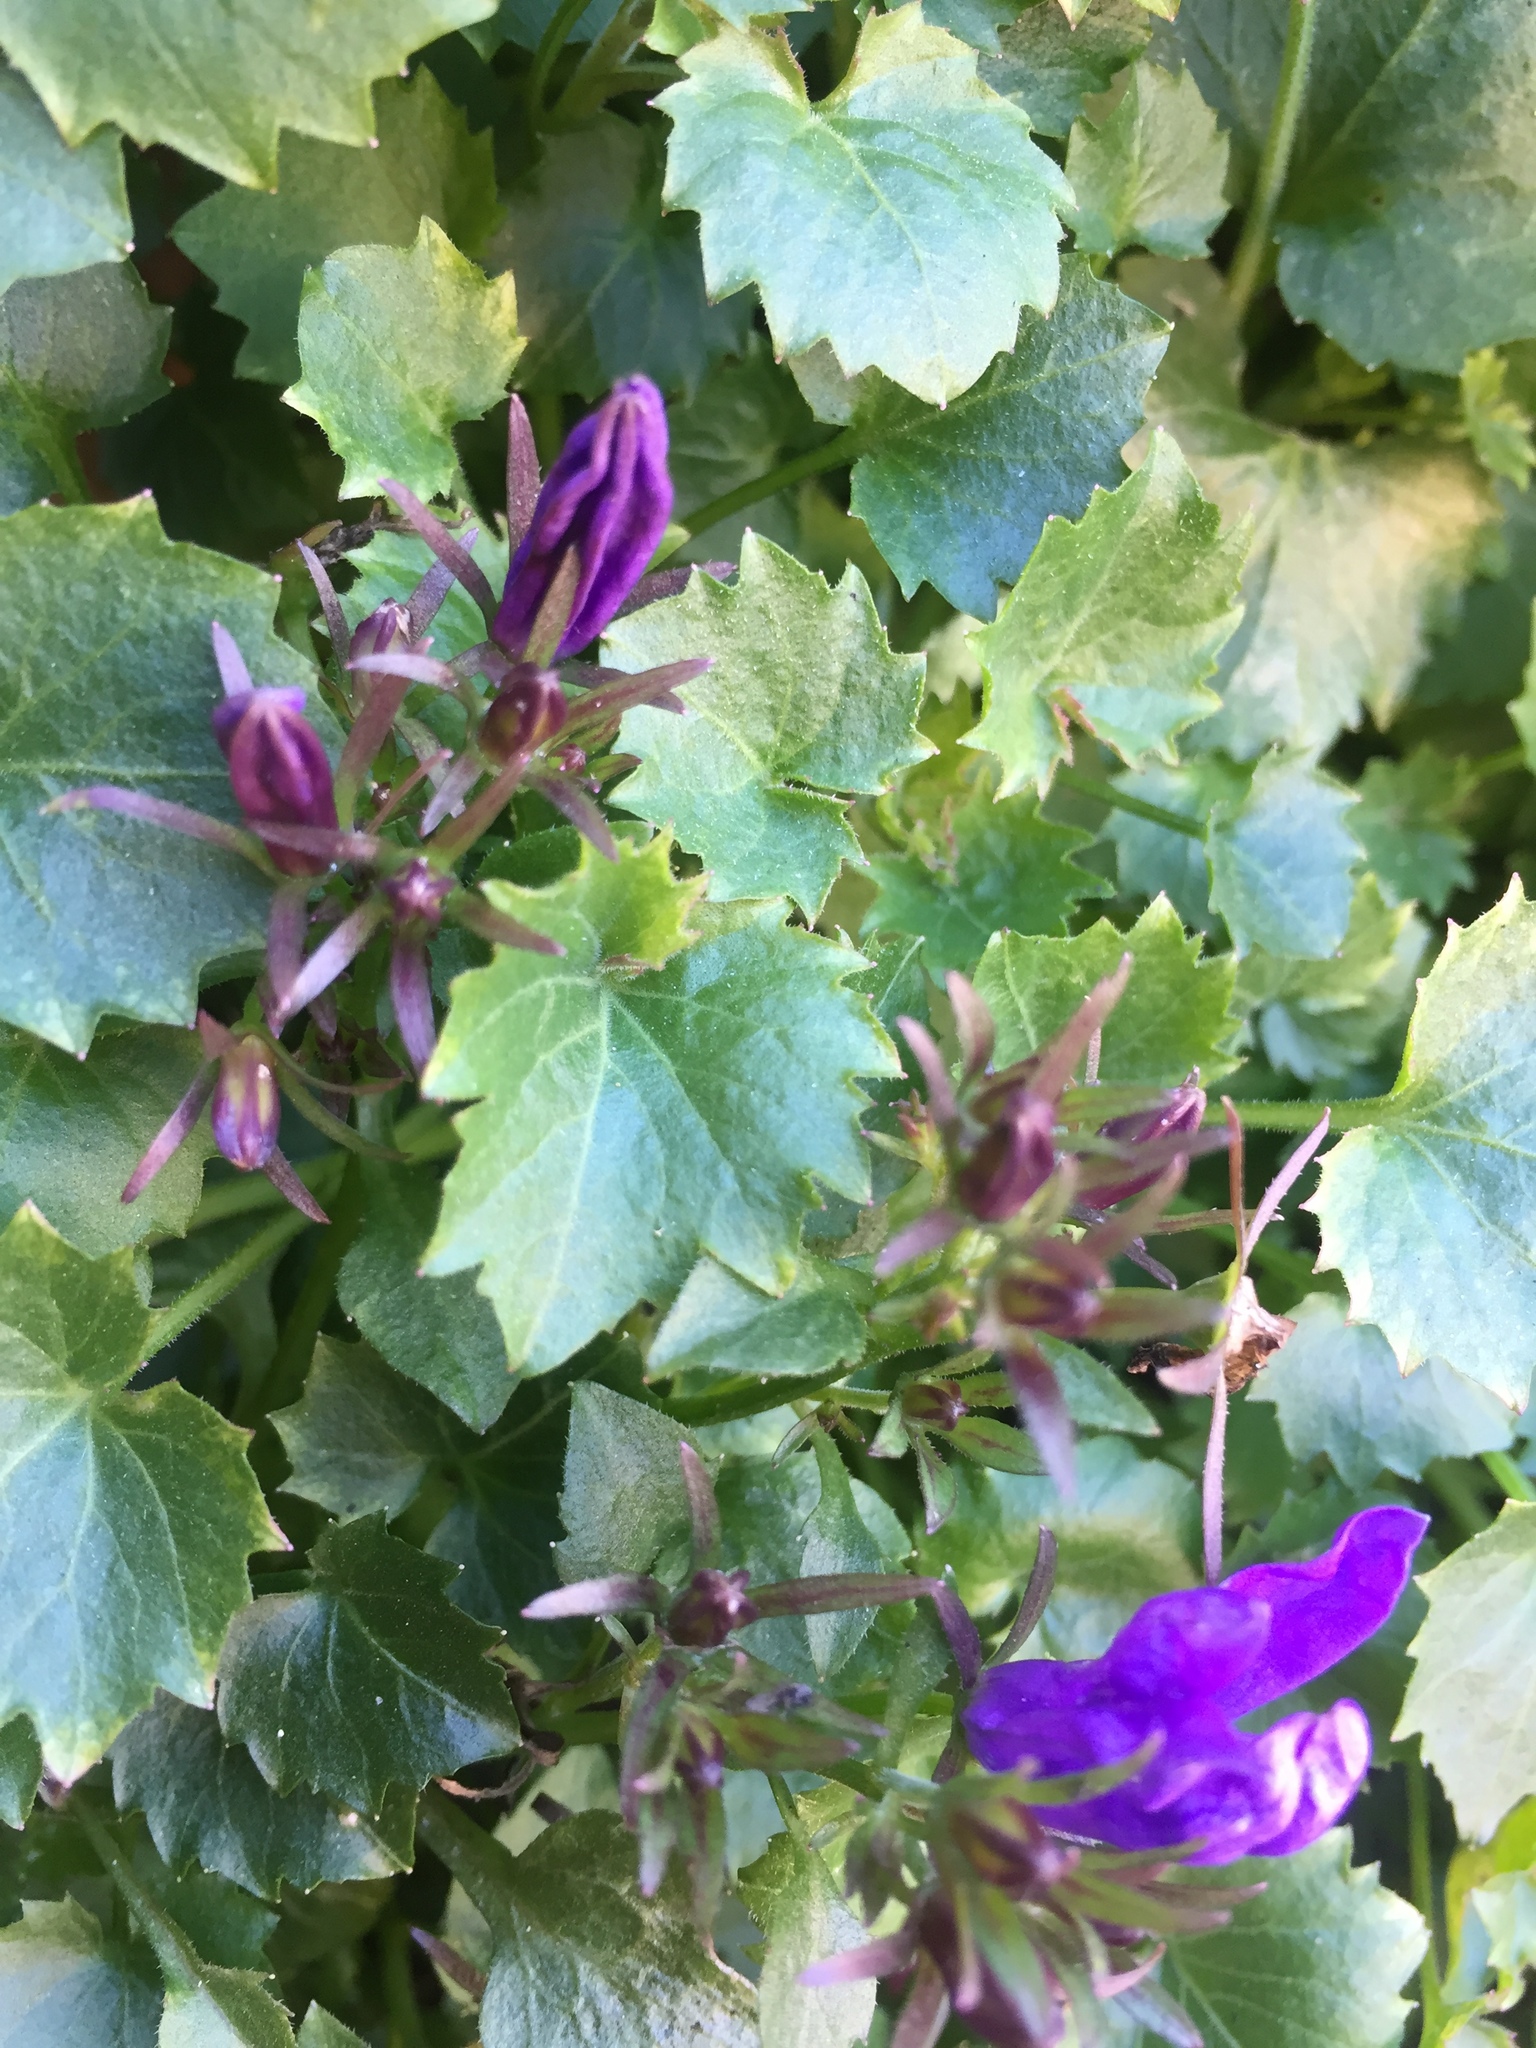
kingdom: Plantae
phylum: Tracheophyta
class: Magnoliopsida
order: Asterales
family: Campanulaceae
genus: Campanula
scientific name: Campanula poscharskyana
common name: Trailing bellflower
